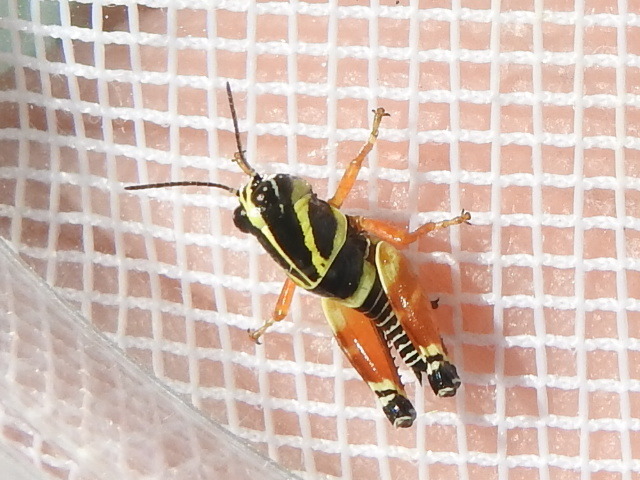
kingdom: Animalia
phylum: Arthropoda
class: Insecta
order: Orthoptera
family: Acrididae
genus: Aidemona
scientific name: Aidemona azteca
